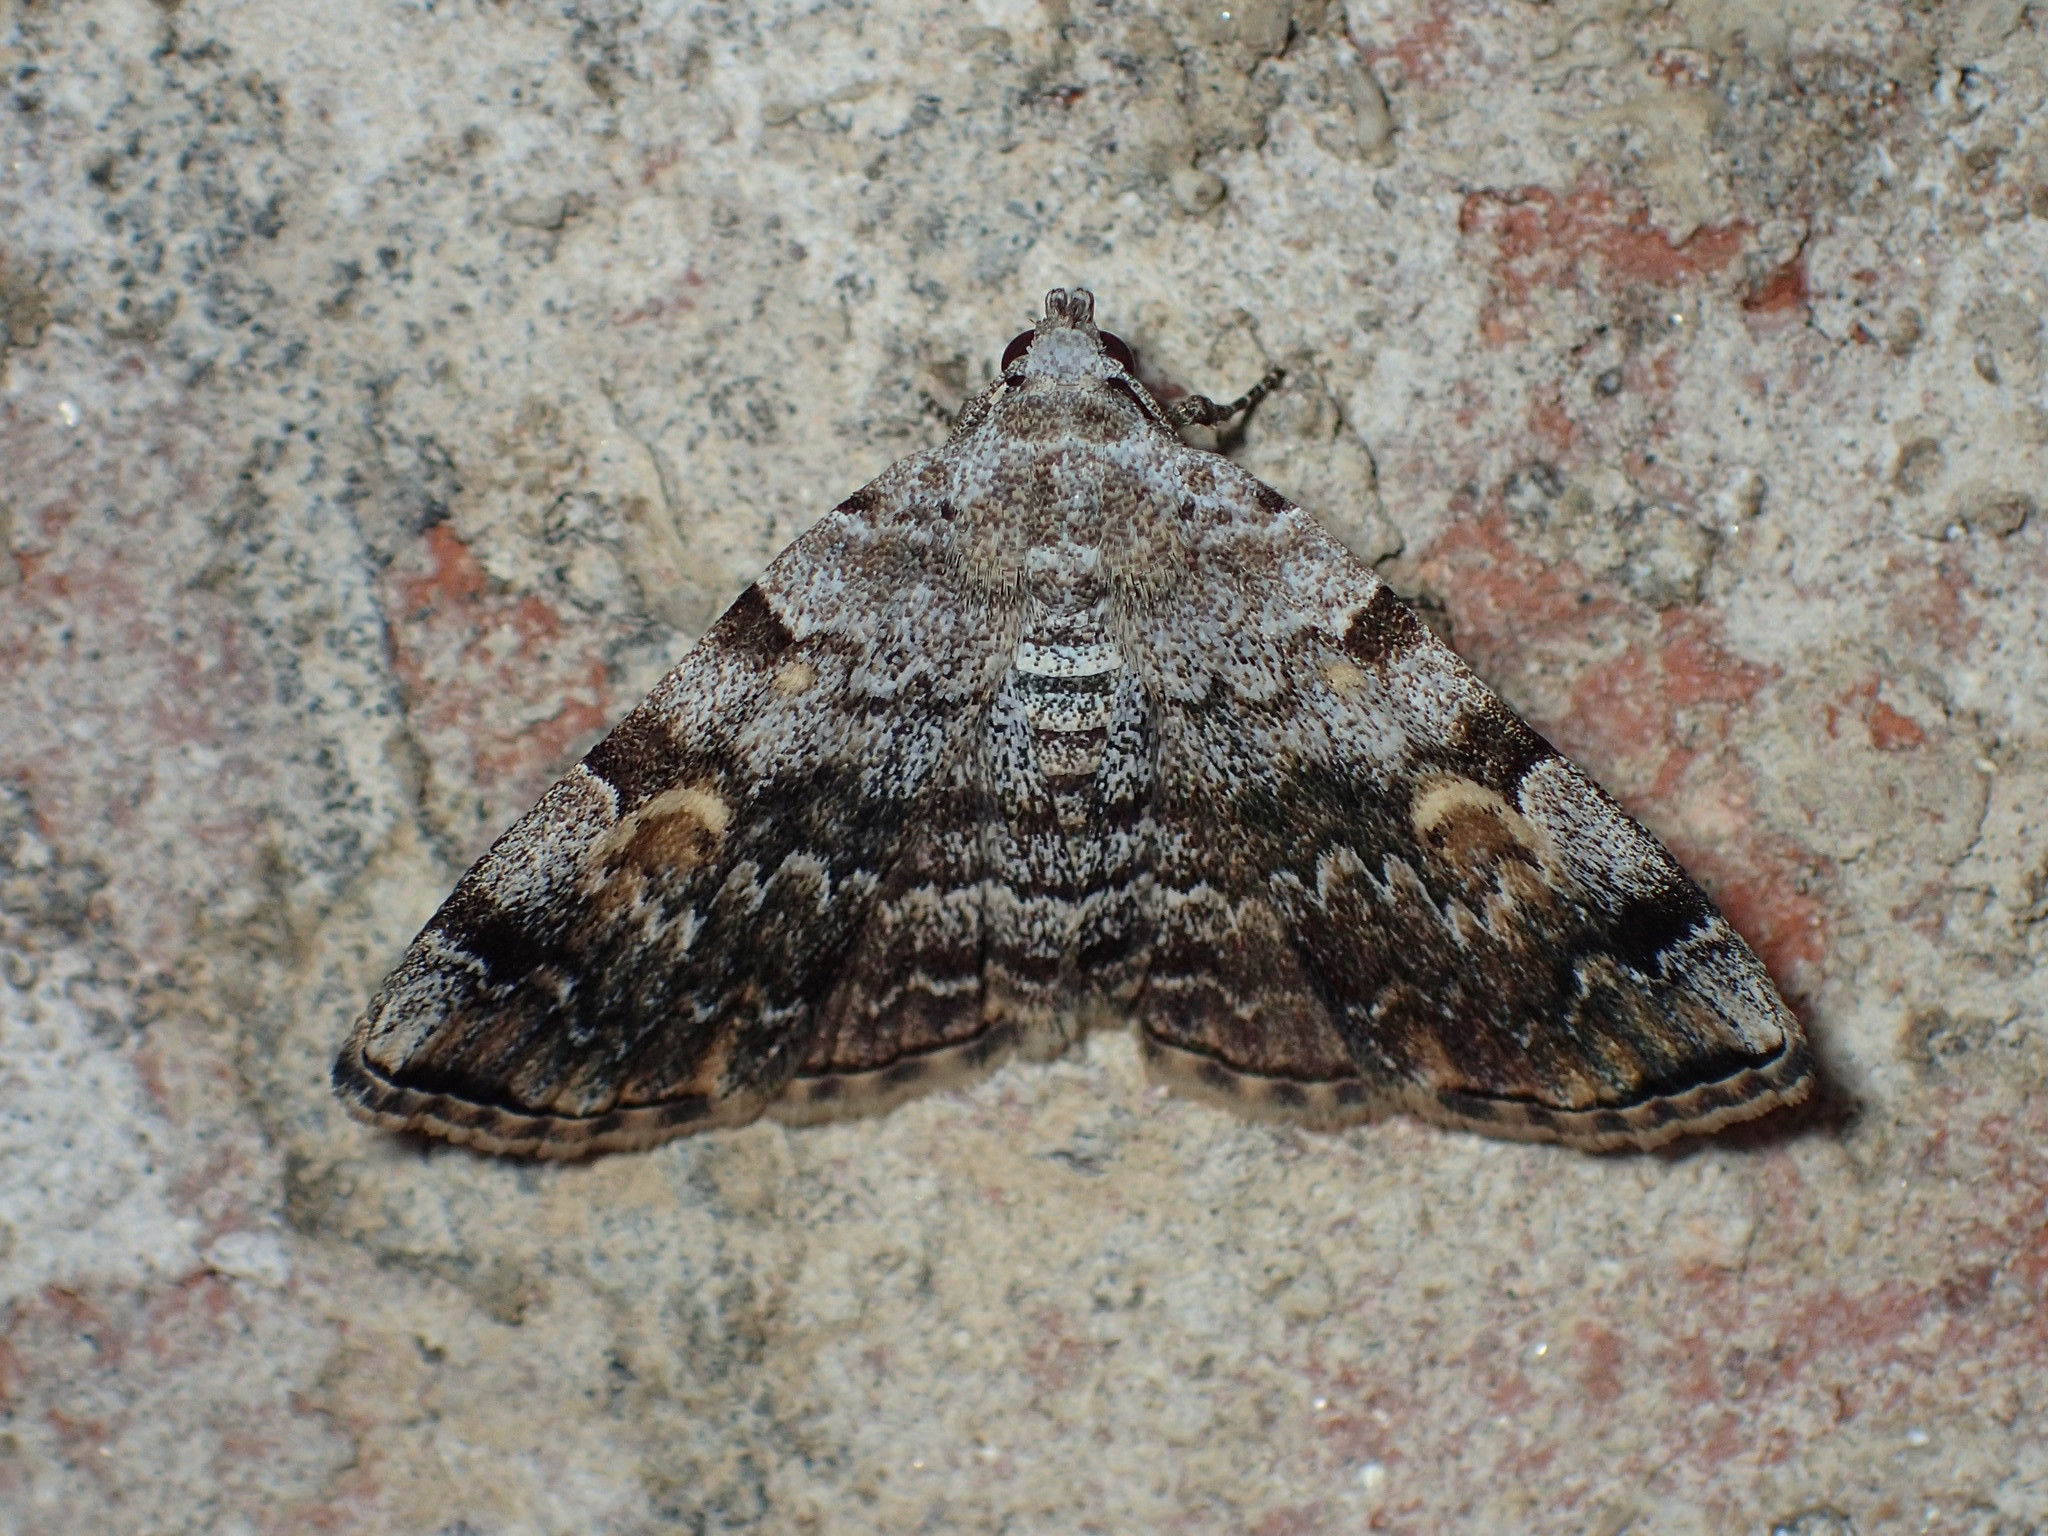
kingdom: Animalia
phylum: Arthropoda
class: Insecta
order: Lepidoptera
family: Erebidae
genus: Idia
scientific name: Idia americalis
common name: American idia moth
